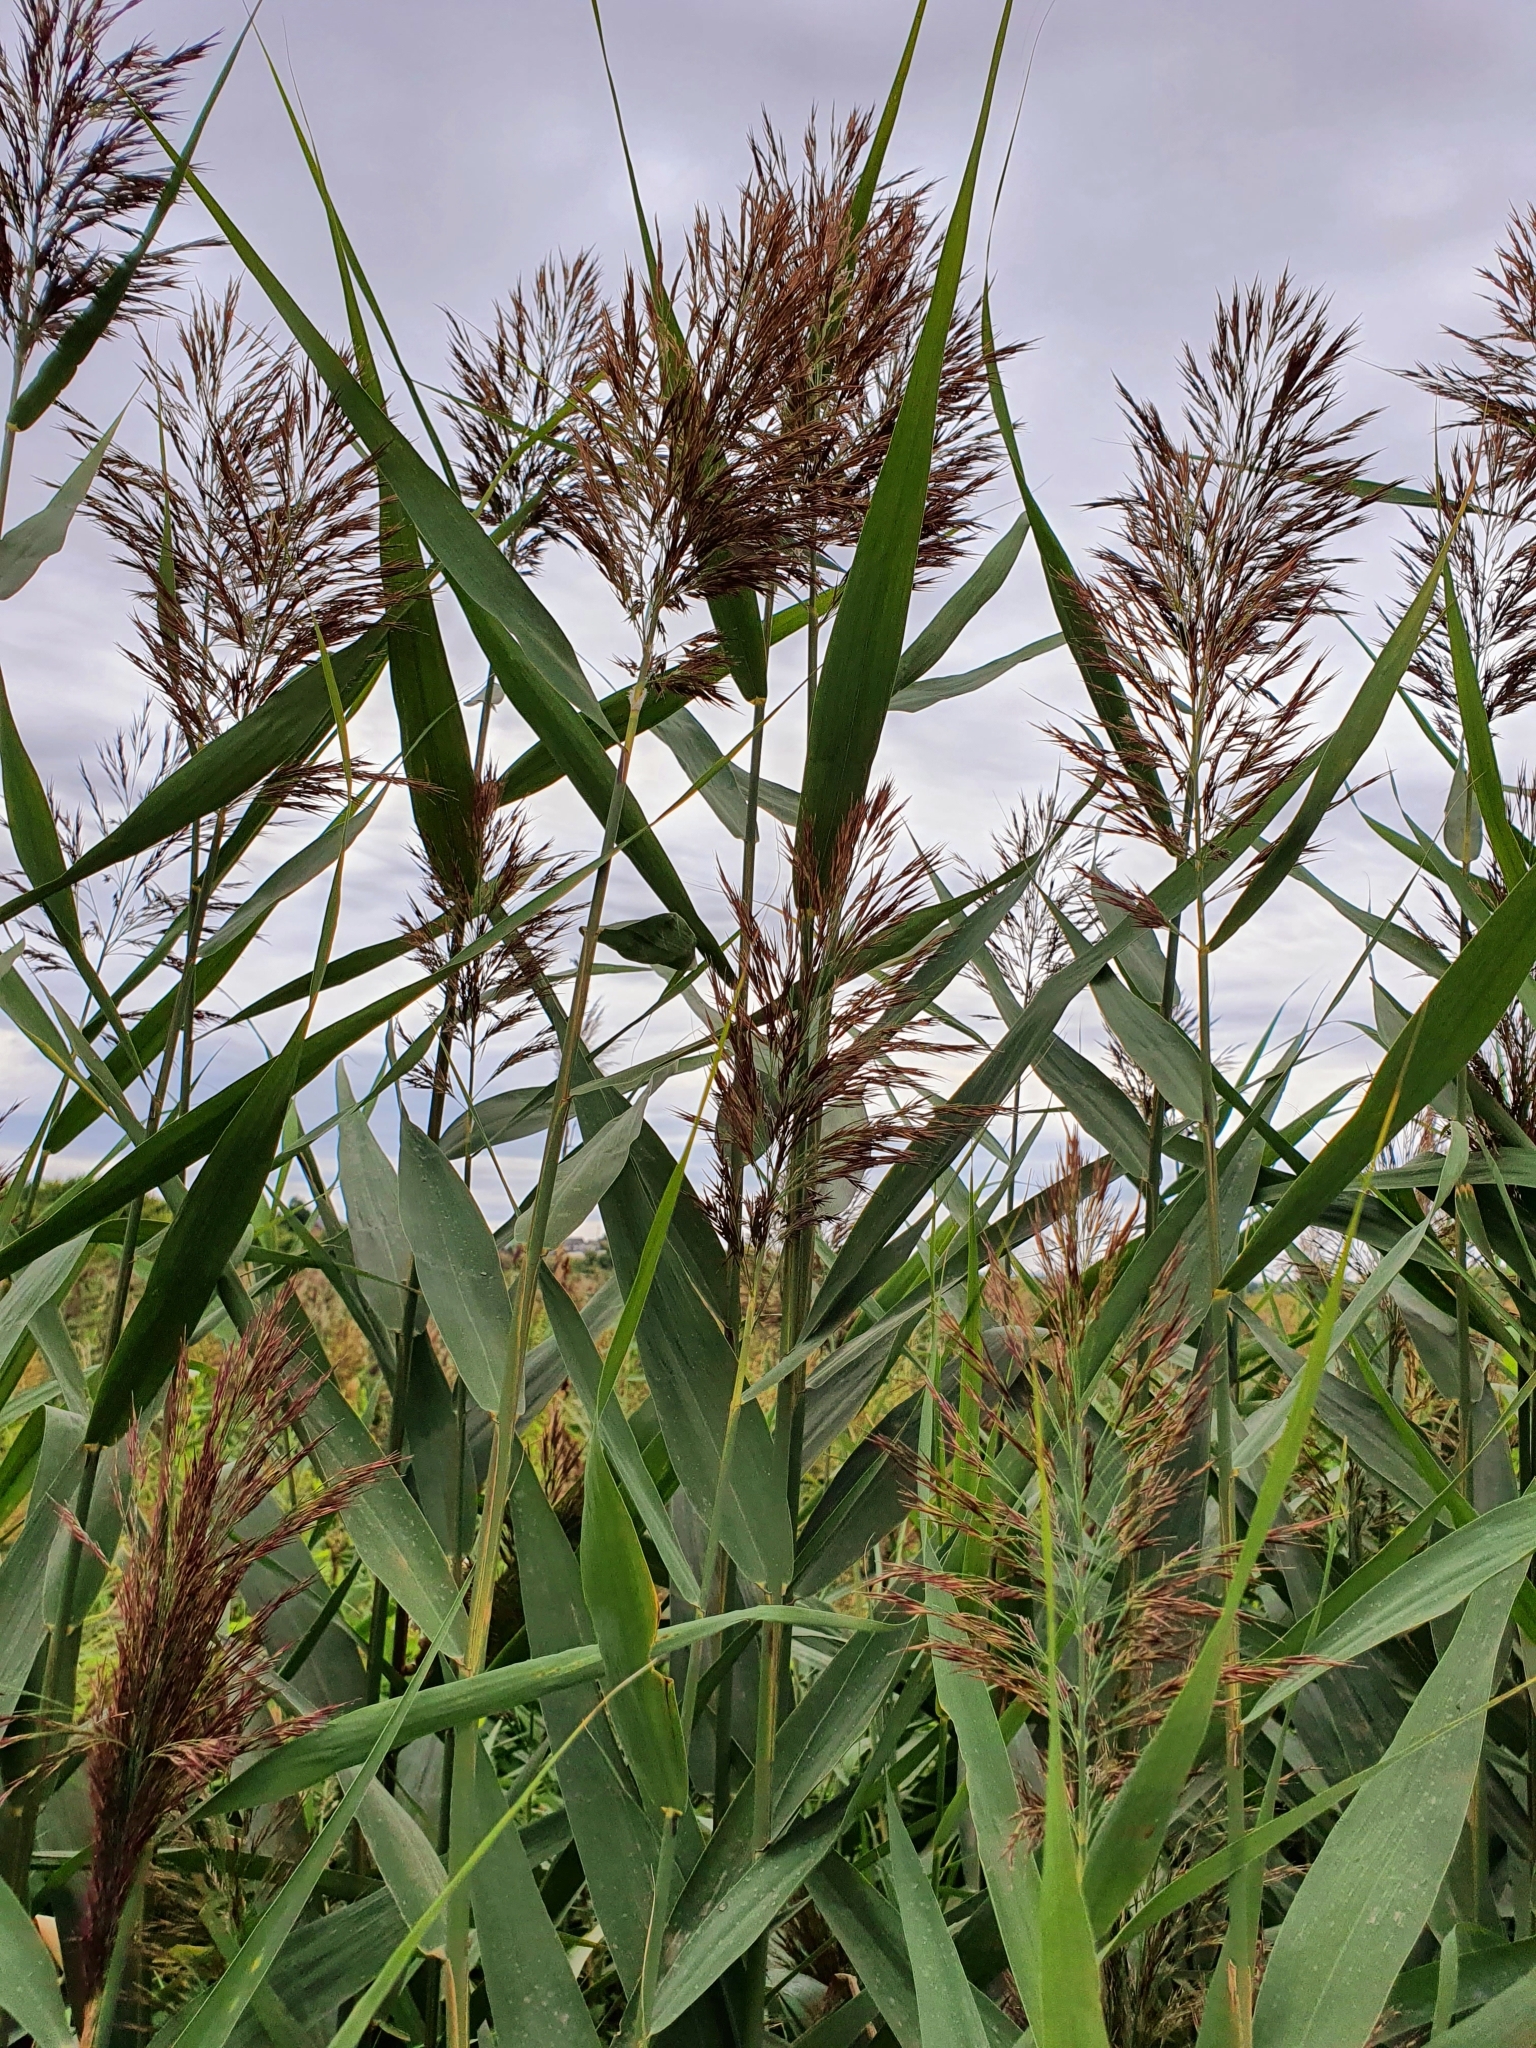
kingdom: Plantae
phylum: Tracheophyta
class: Liliopsida
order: Poales
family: Poaceae
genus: Phragmites
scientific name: Phragmites australis
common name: Common reed
